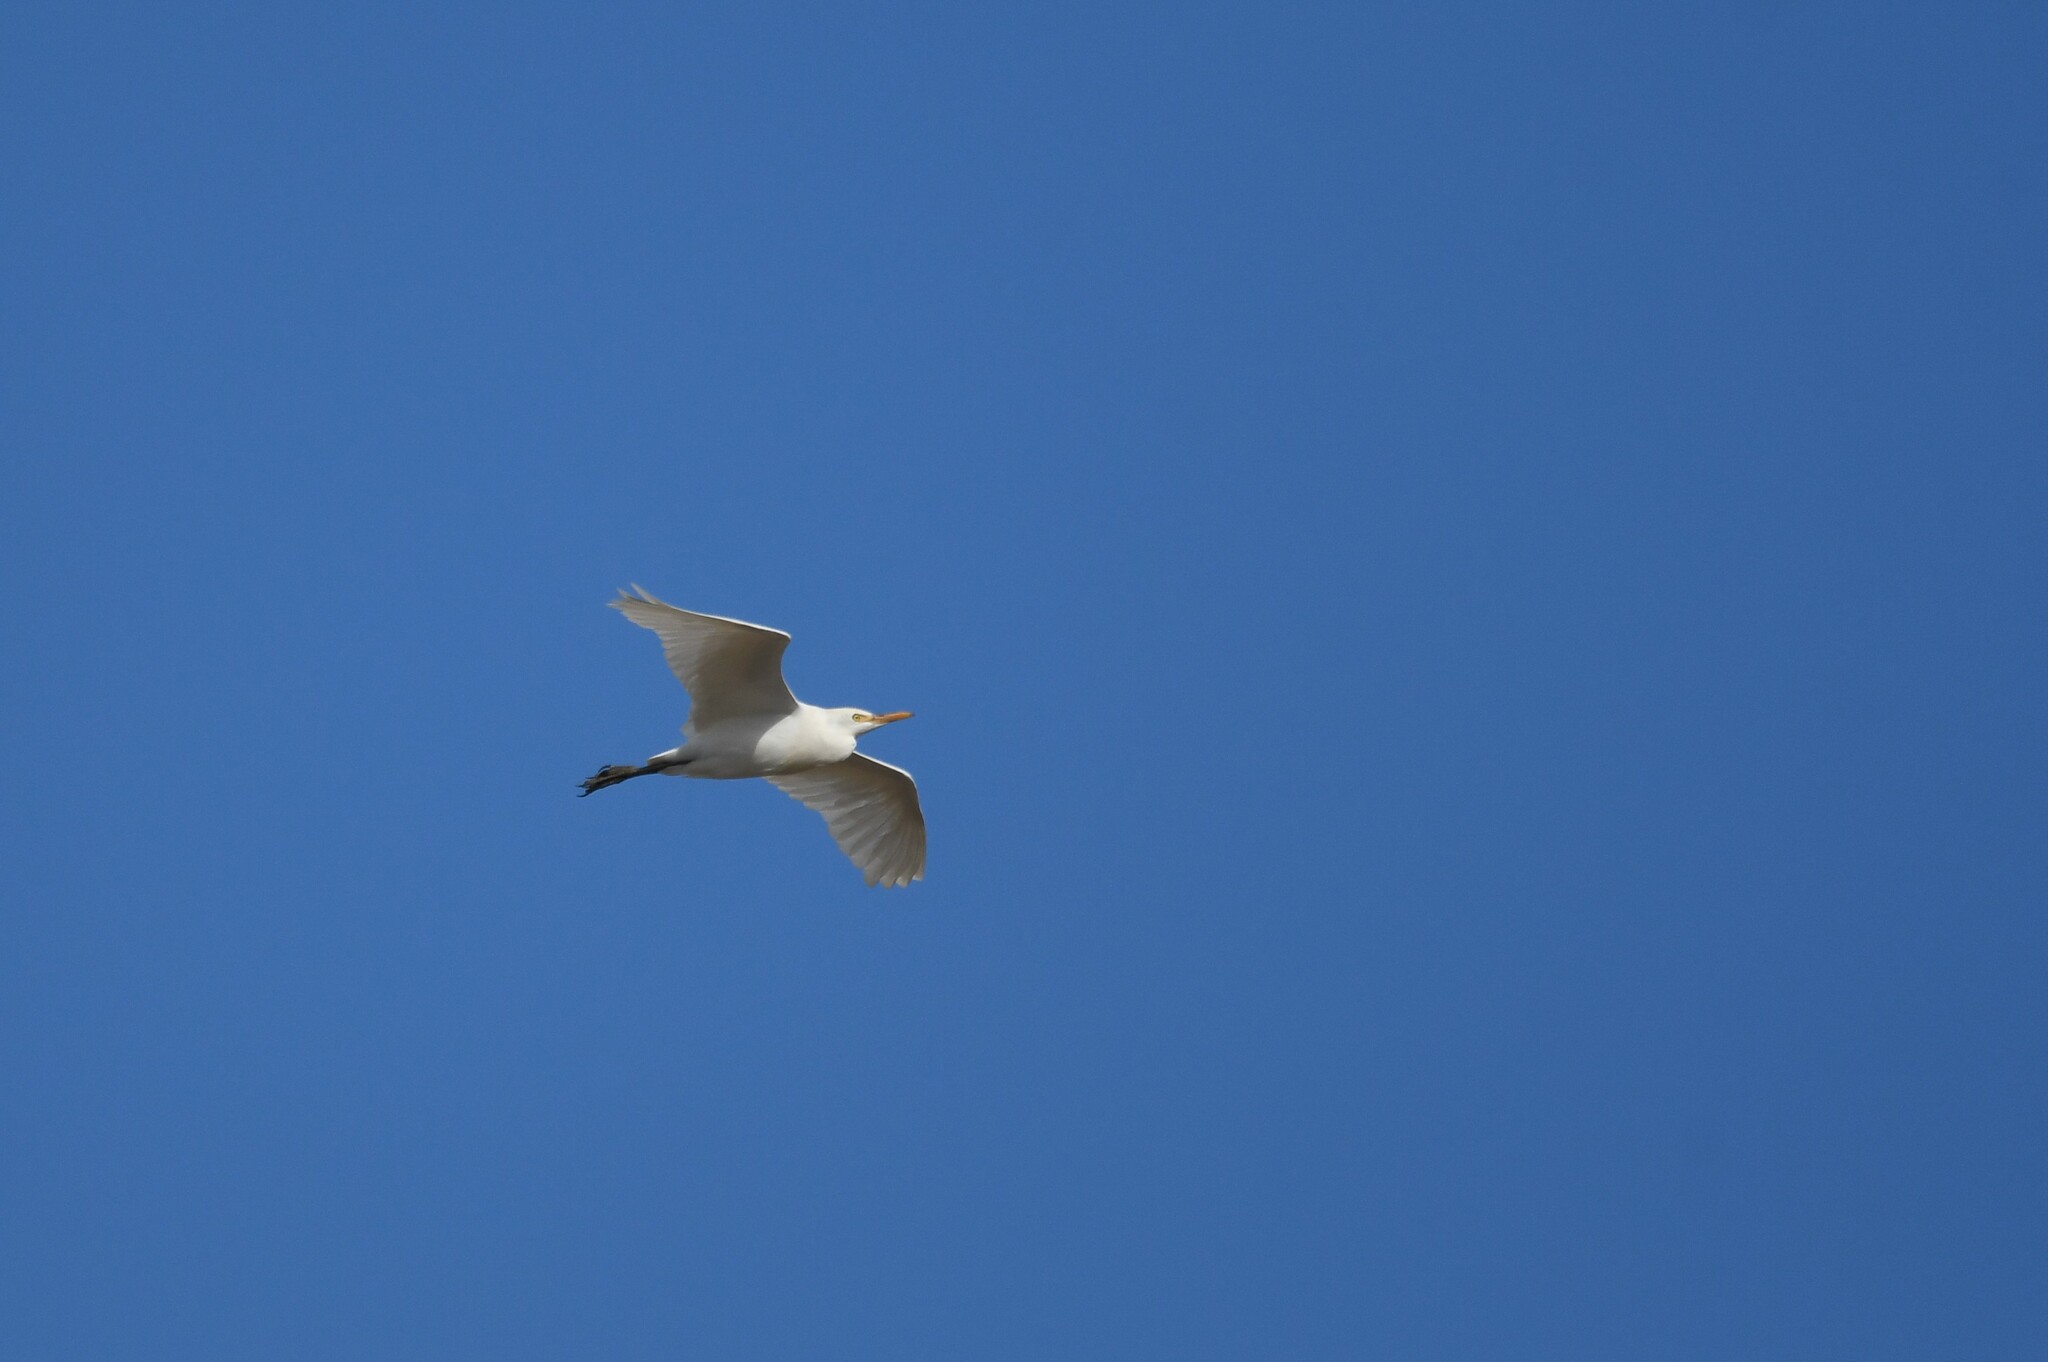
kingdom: Animalia
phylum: Chordata
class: Aves
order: Pelecaniformes
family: Ardeidae
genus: Bubulcus
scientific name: Bubulcus ibis
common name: Cattle egret
